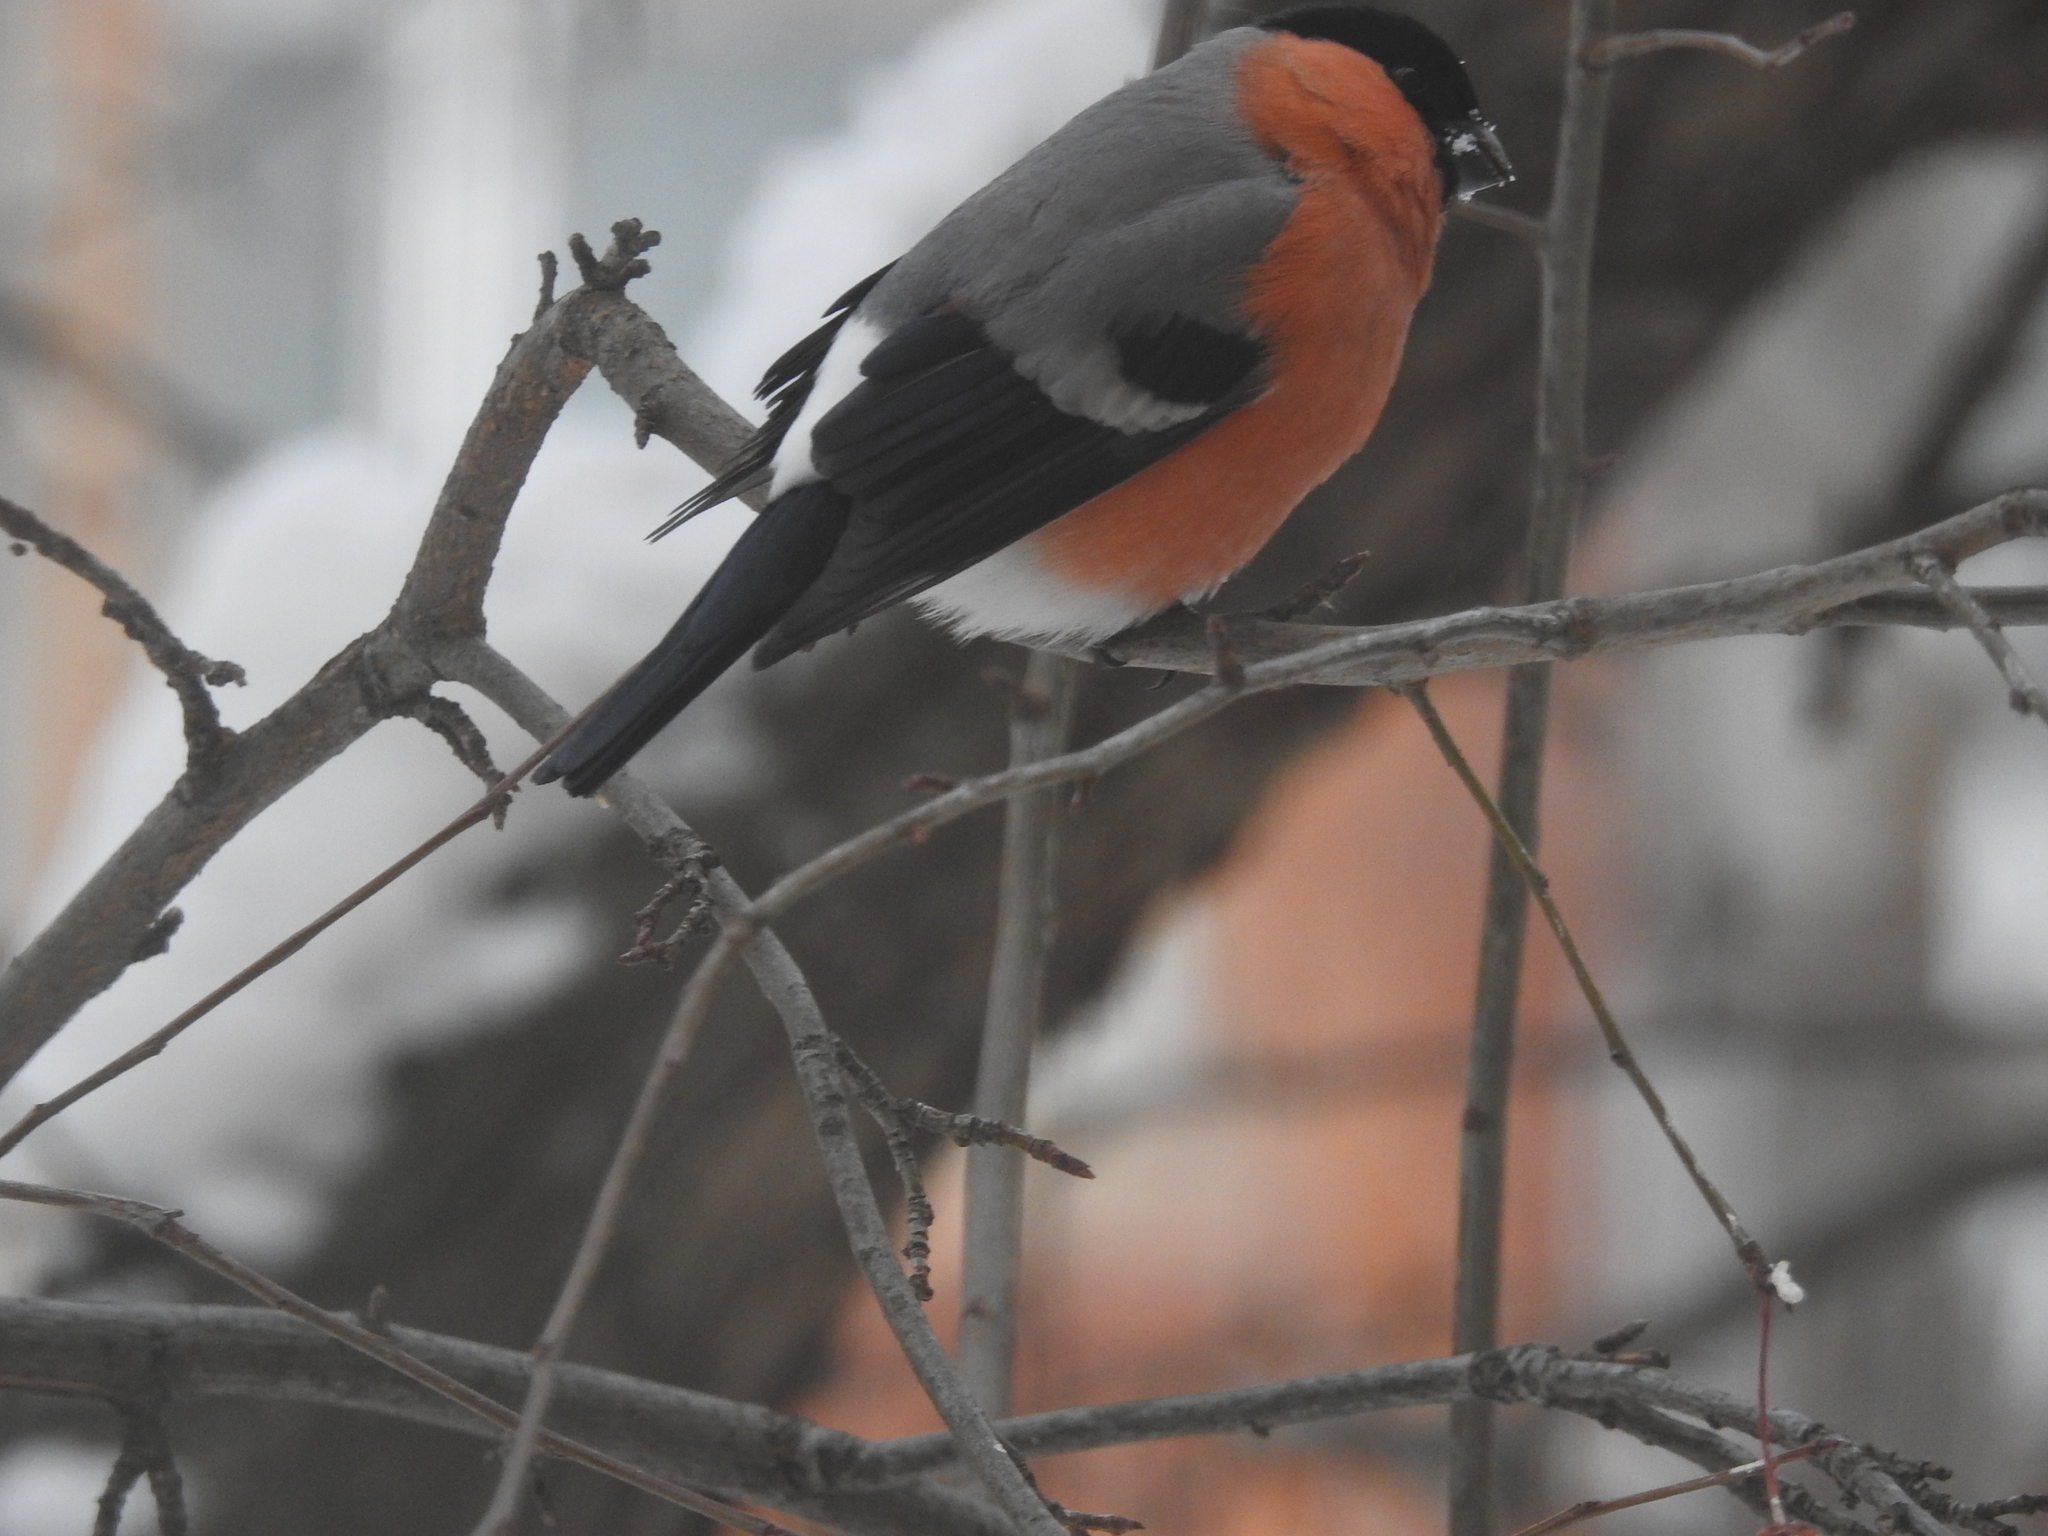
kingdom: Animalia
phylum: Chordata
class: Aves
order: Passeriformes
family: Fringillidae
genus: Pyrrhula
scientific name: Pyrrhula pyrrhula
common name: Eurasian bullfinch
